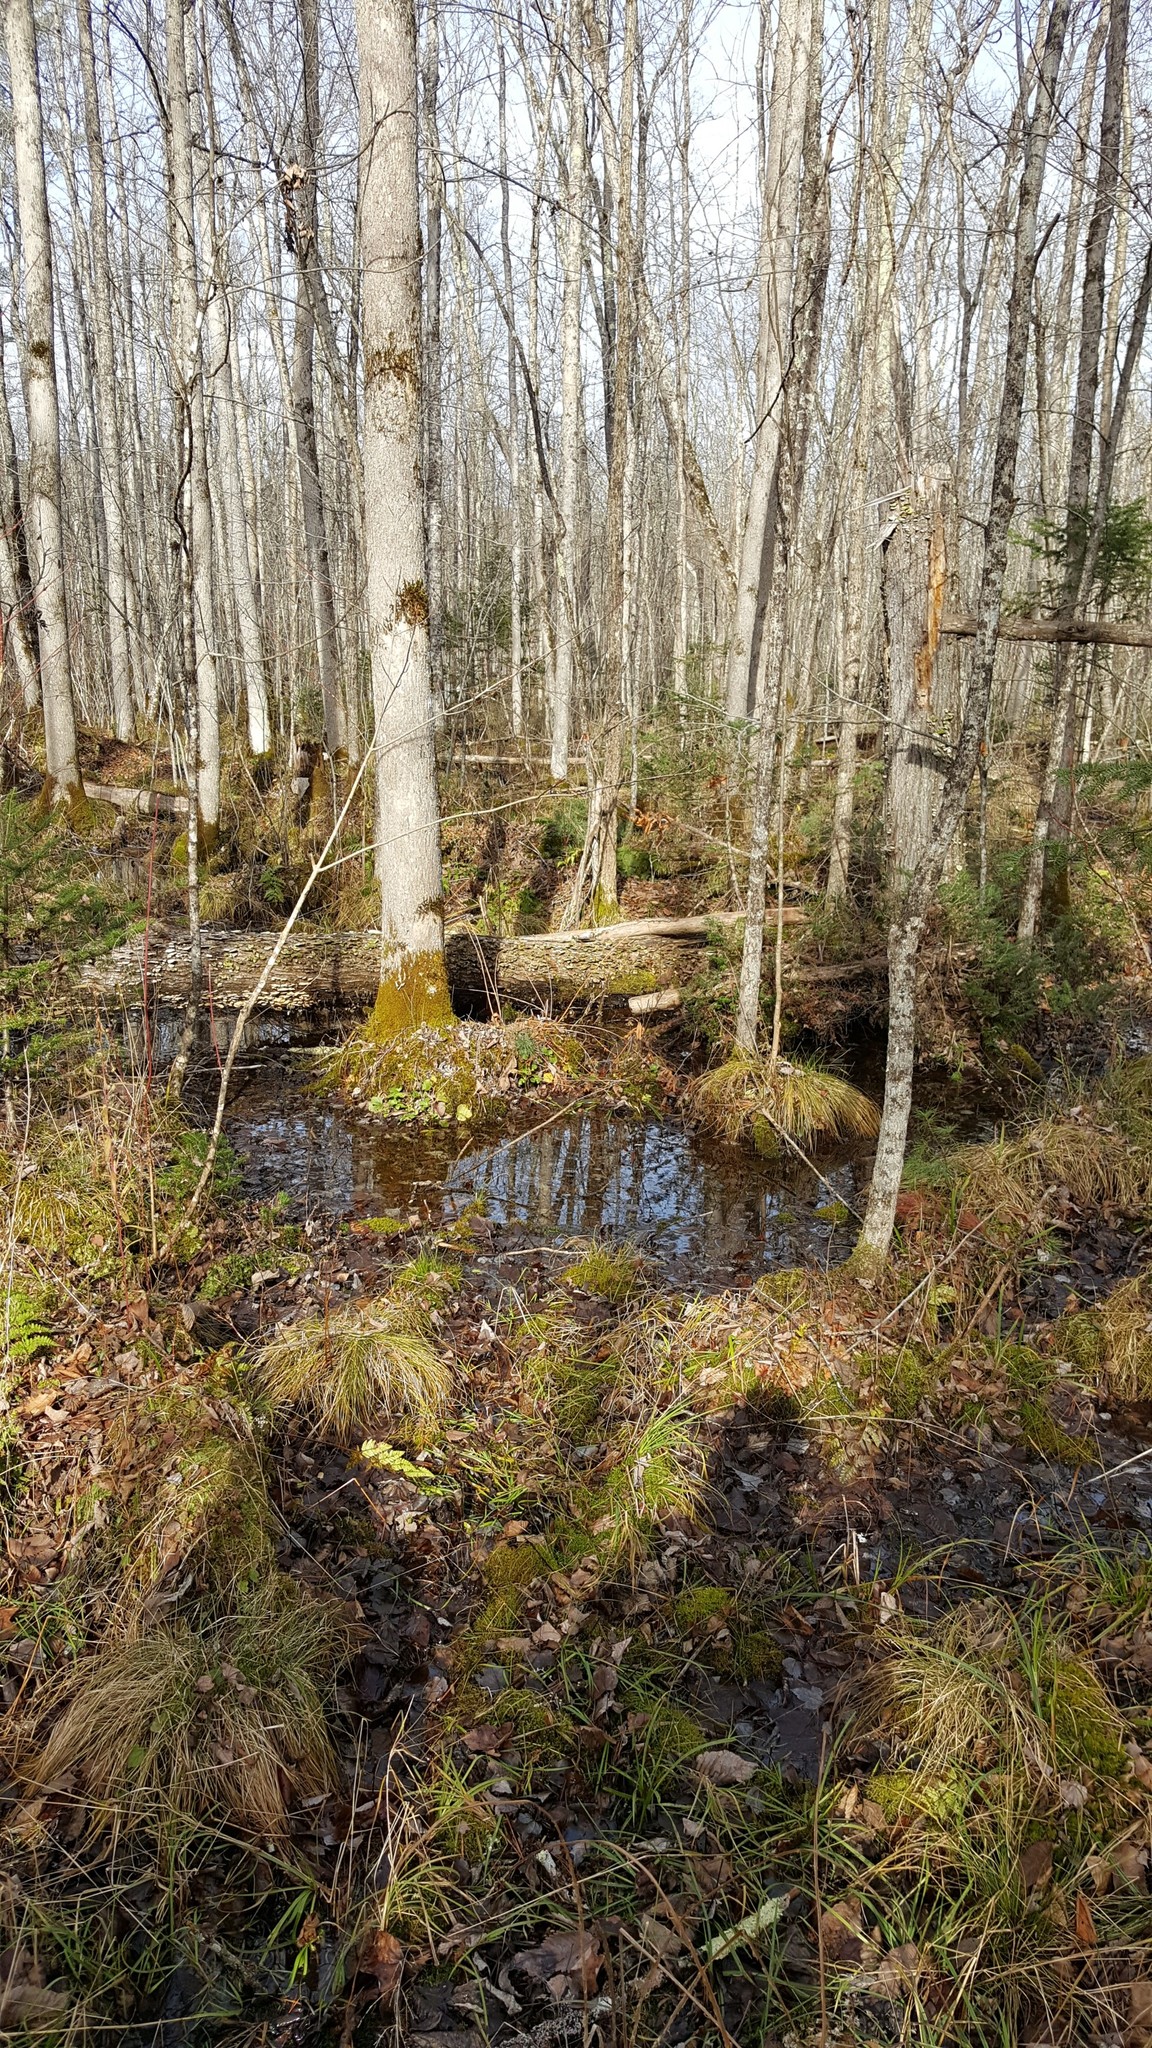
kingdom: Plantae
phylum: Tracheophyta
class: Magnoliopsida
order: Lamiales
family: Oleaceae
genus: Fraxinus
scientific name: Fraxinus nigra
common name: Black ash
